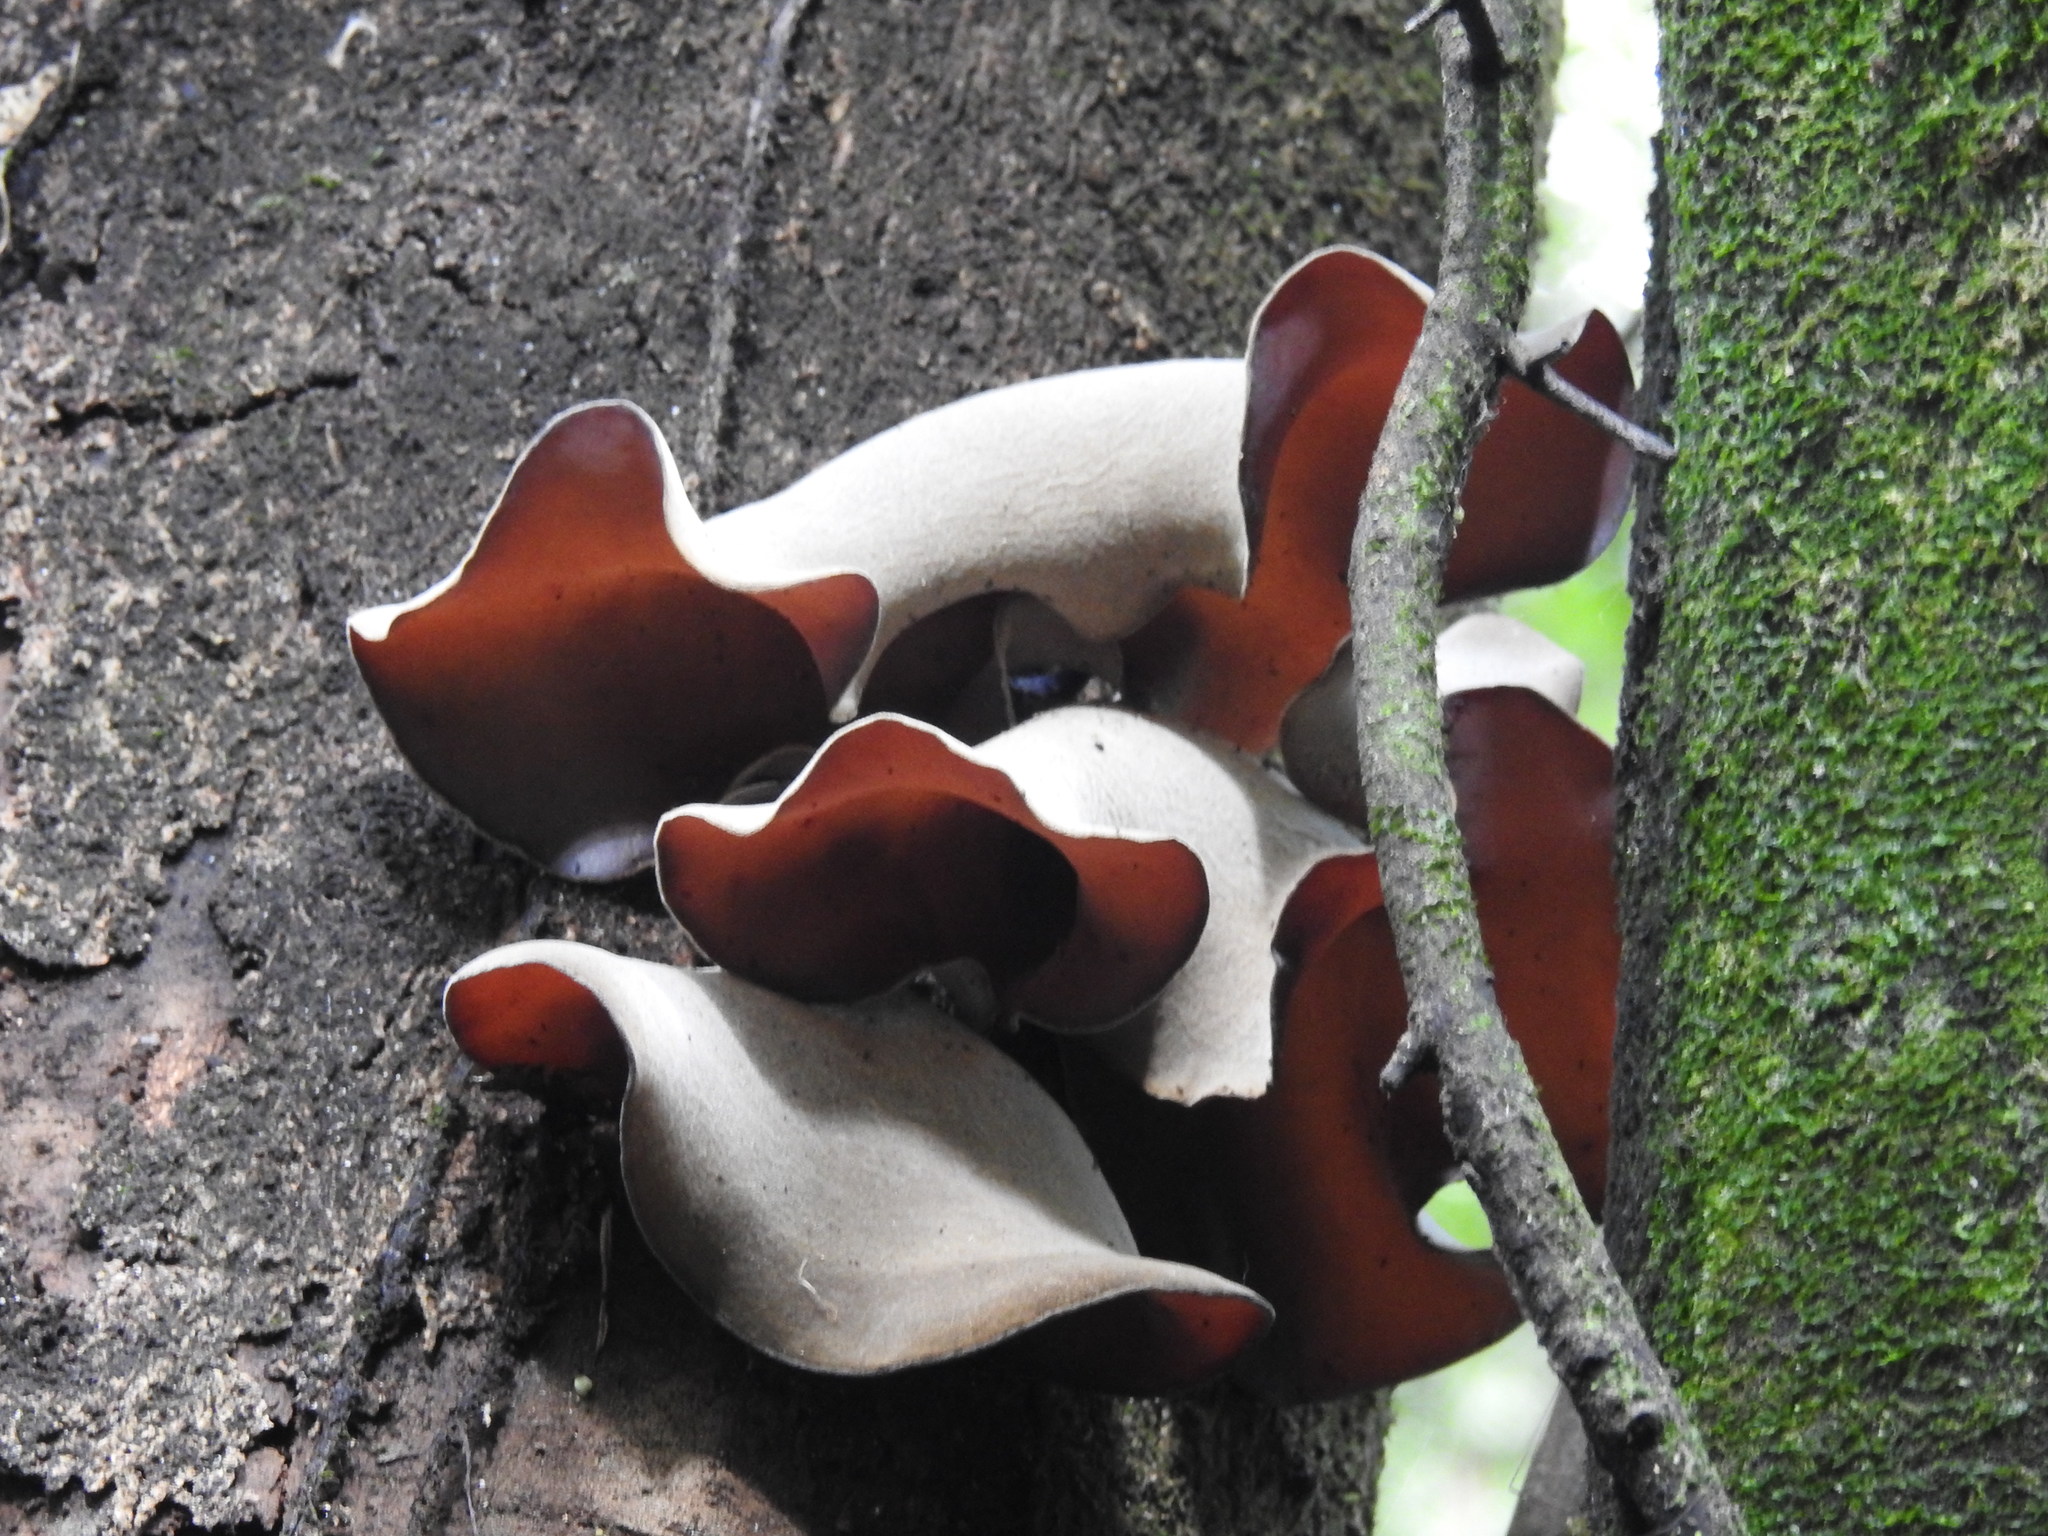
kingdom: Fungi
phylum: Basidiomycota
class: Agaricomycetes
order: Auriculariales
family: Auriculariaceae
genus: Auricularia
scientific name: Auricularia cornea
